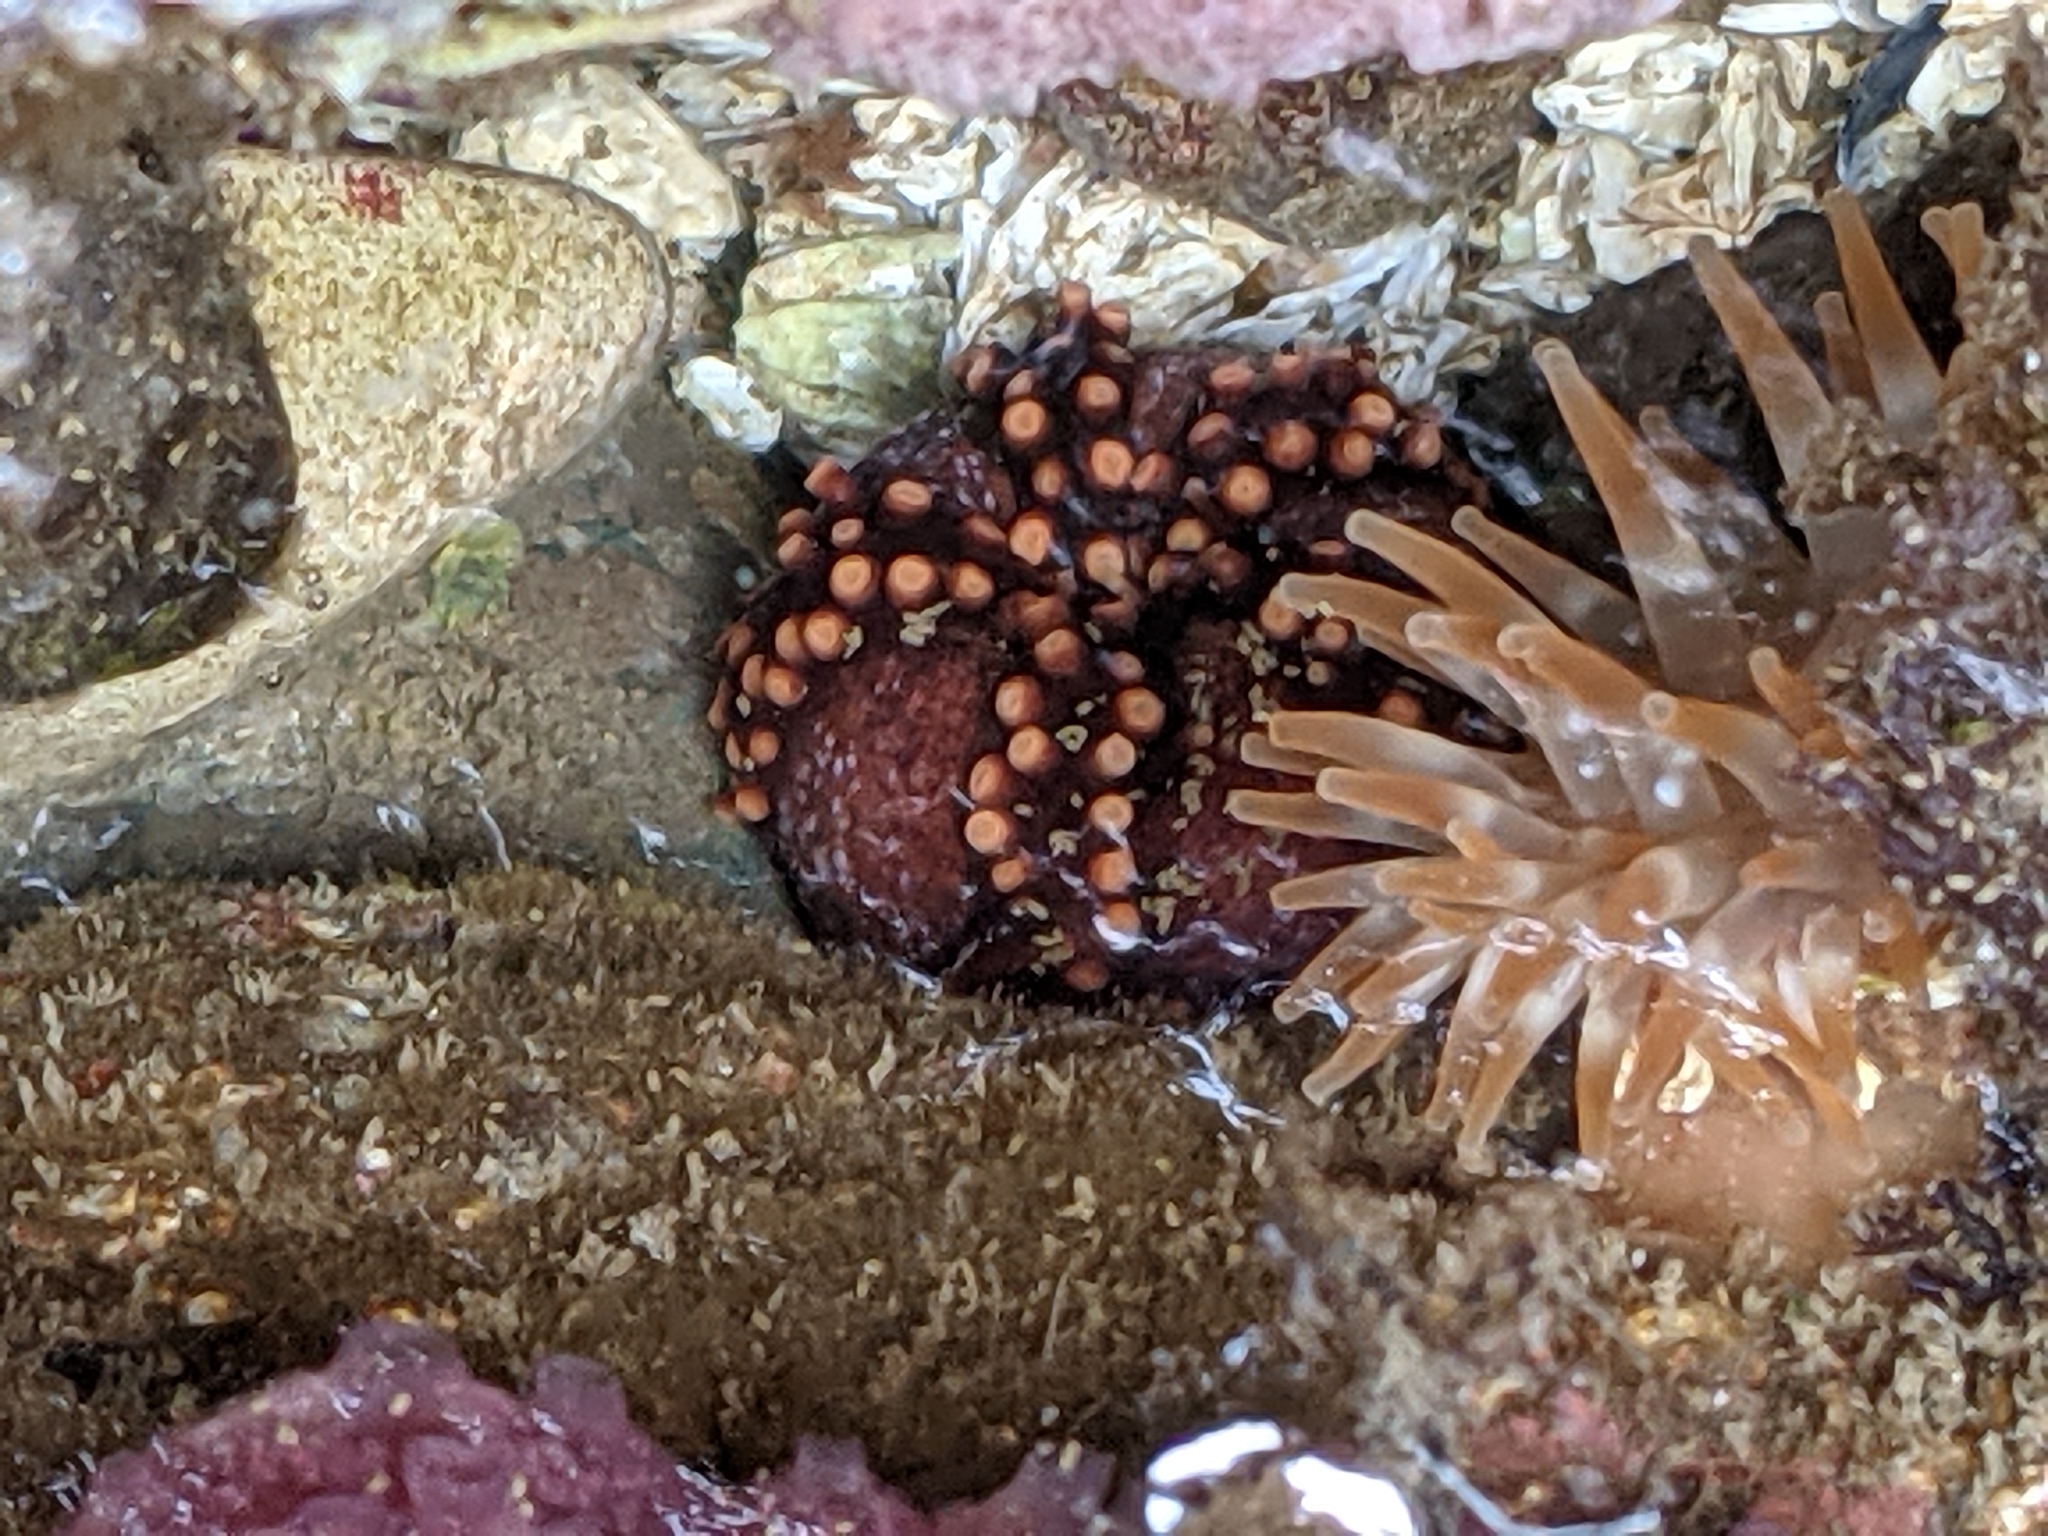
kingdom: Animalia
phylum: Echinodermata
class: Holothuroidea
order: Dendrochirotida
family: Cucumariidae
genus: Cucumaria
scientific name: Cucumaria miniata
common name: Orange sea cucumber
